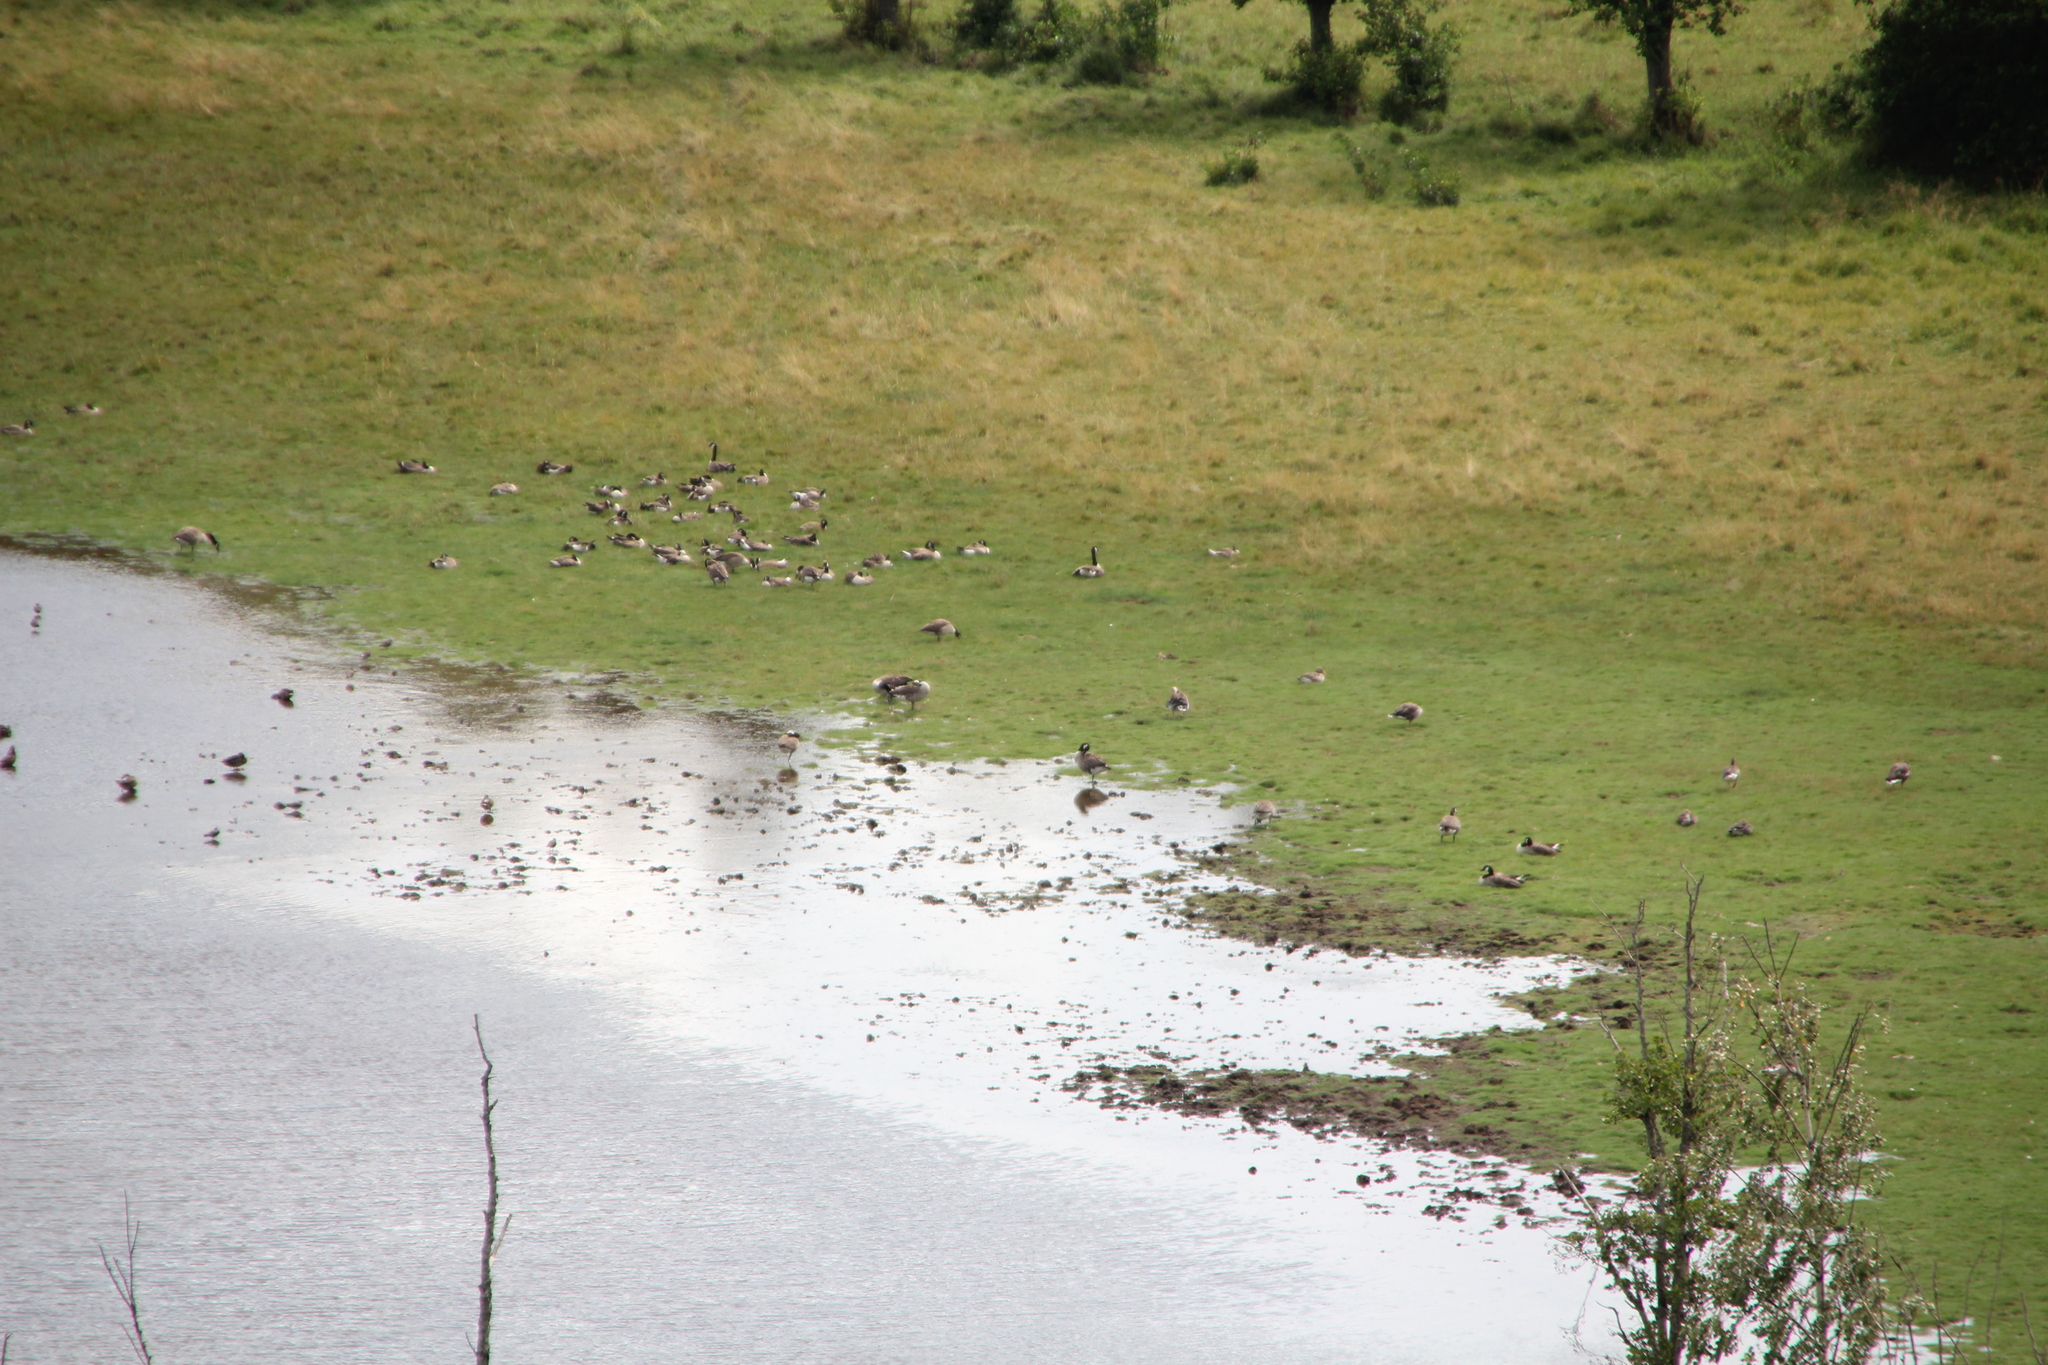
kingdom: Animalia
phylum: Chordata
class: Aves
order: Anseriformes
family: Anatidae
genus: Branta
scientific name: Branta canadensis
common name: Canada goose
